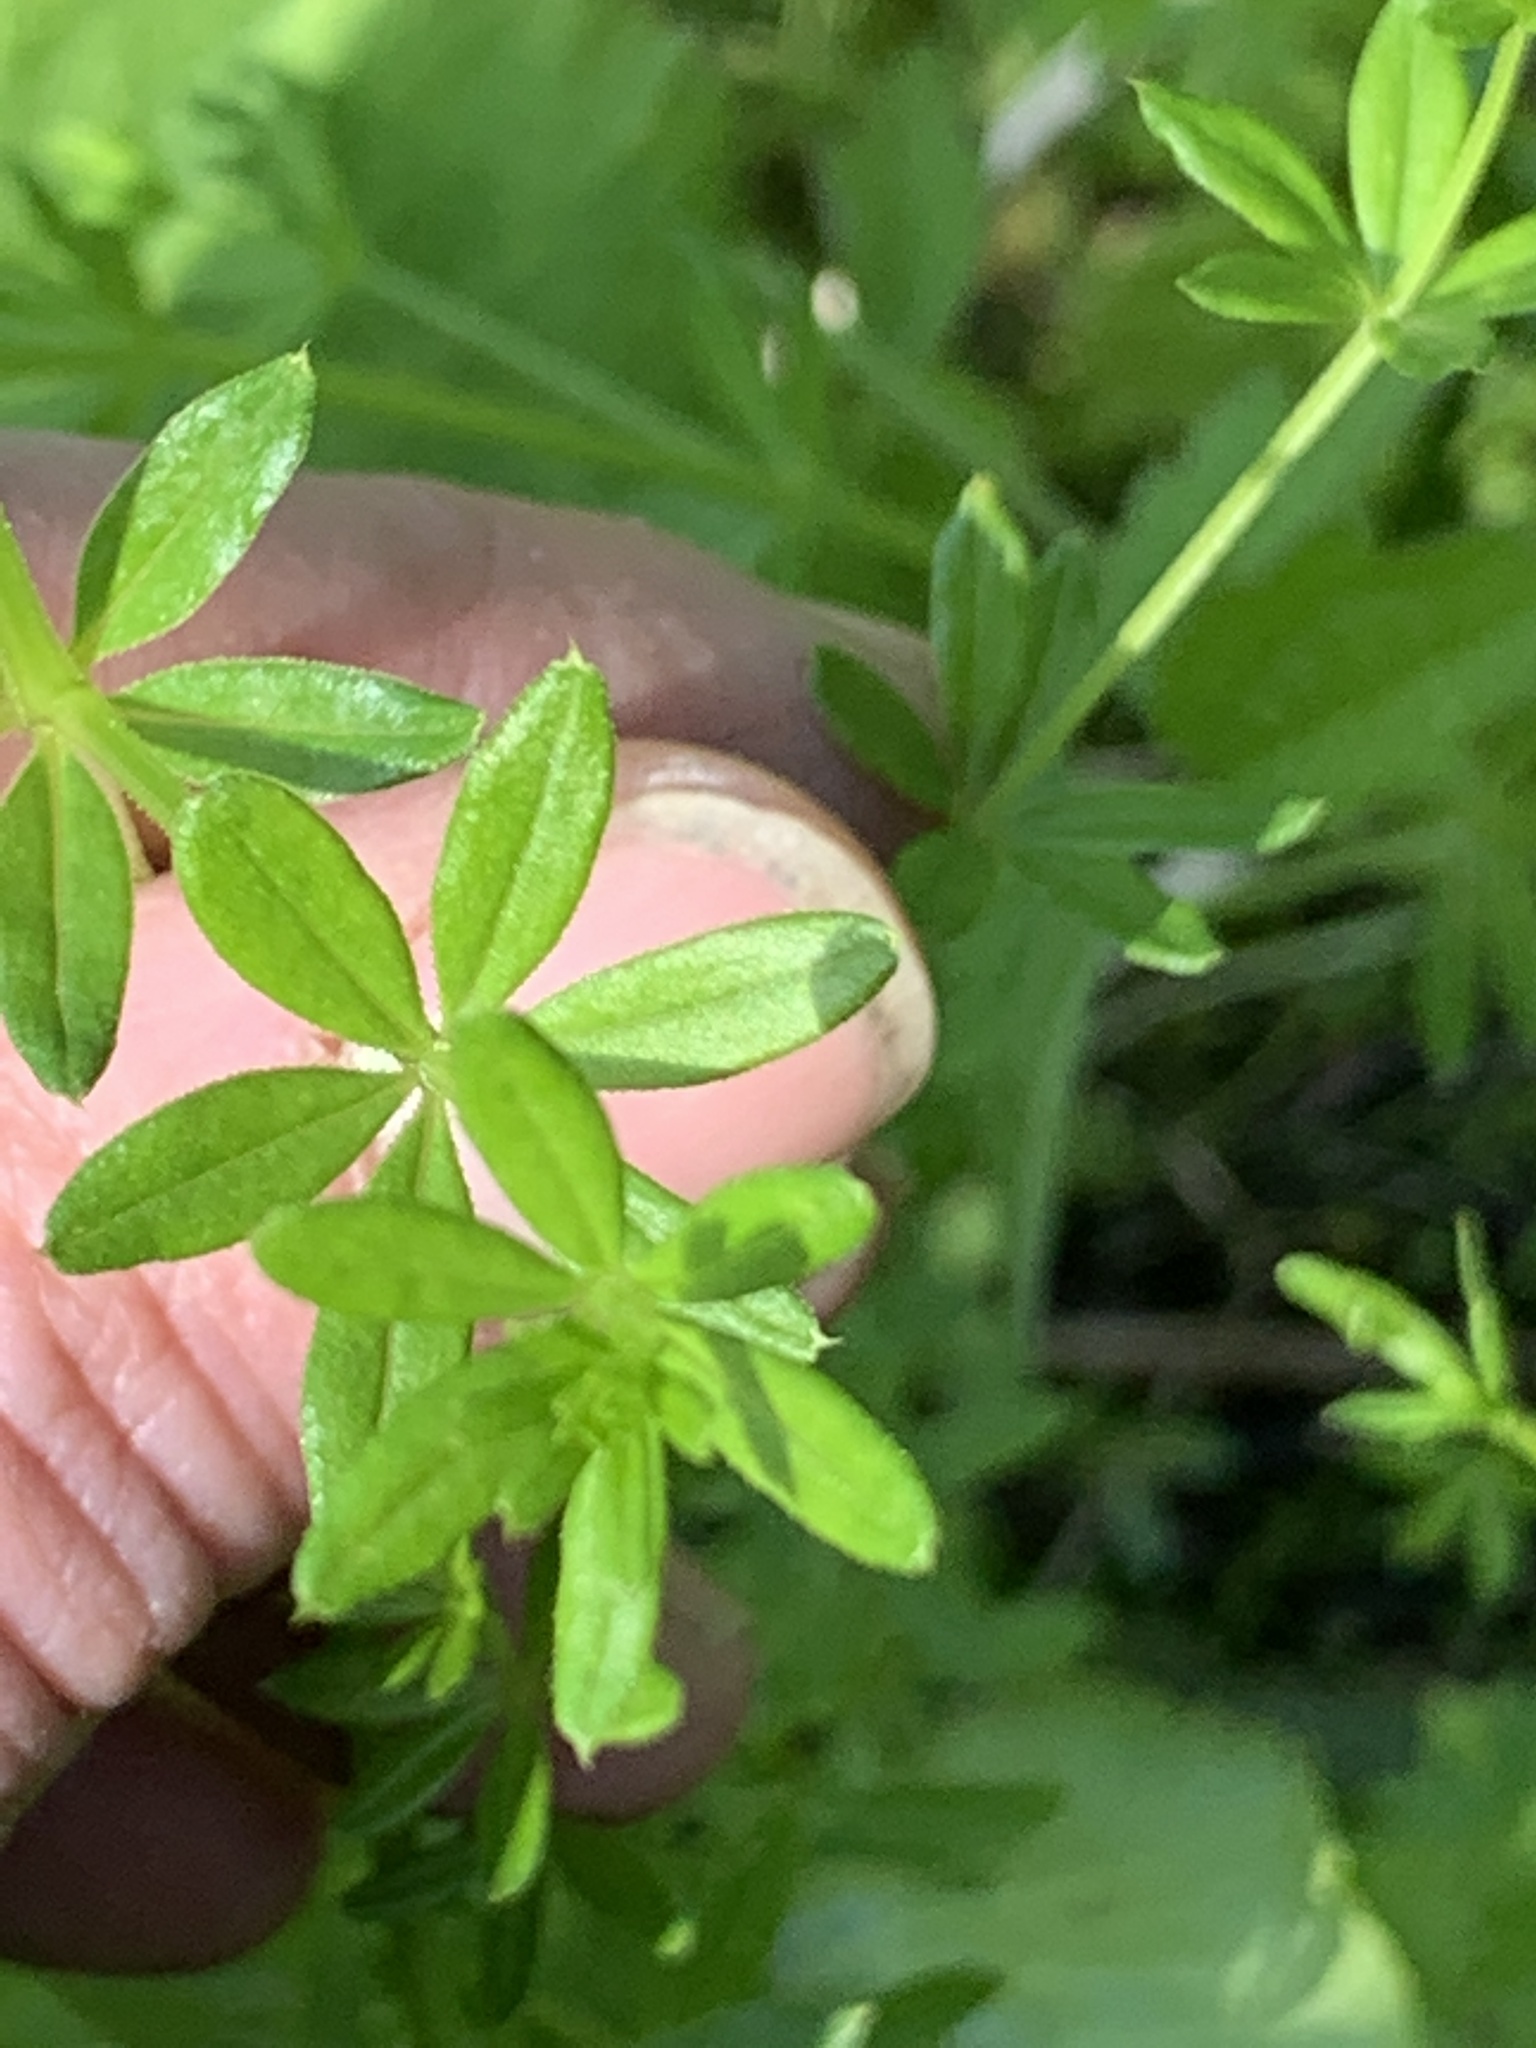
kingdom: Plantae
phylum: Tracheophyta
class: Magnoliopsida
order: Gentianales
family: Rubiaceae
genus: Galium
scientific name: Galium asprellum
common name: Rough bedstraw
